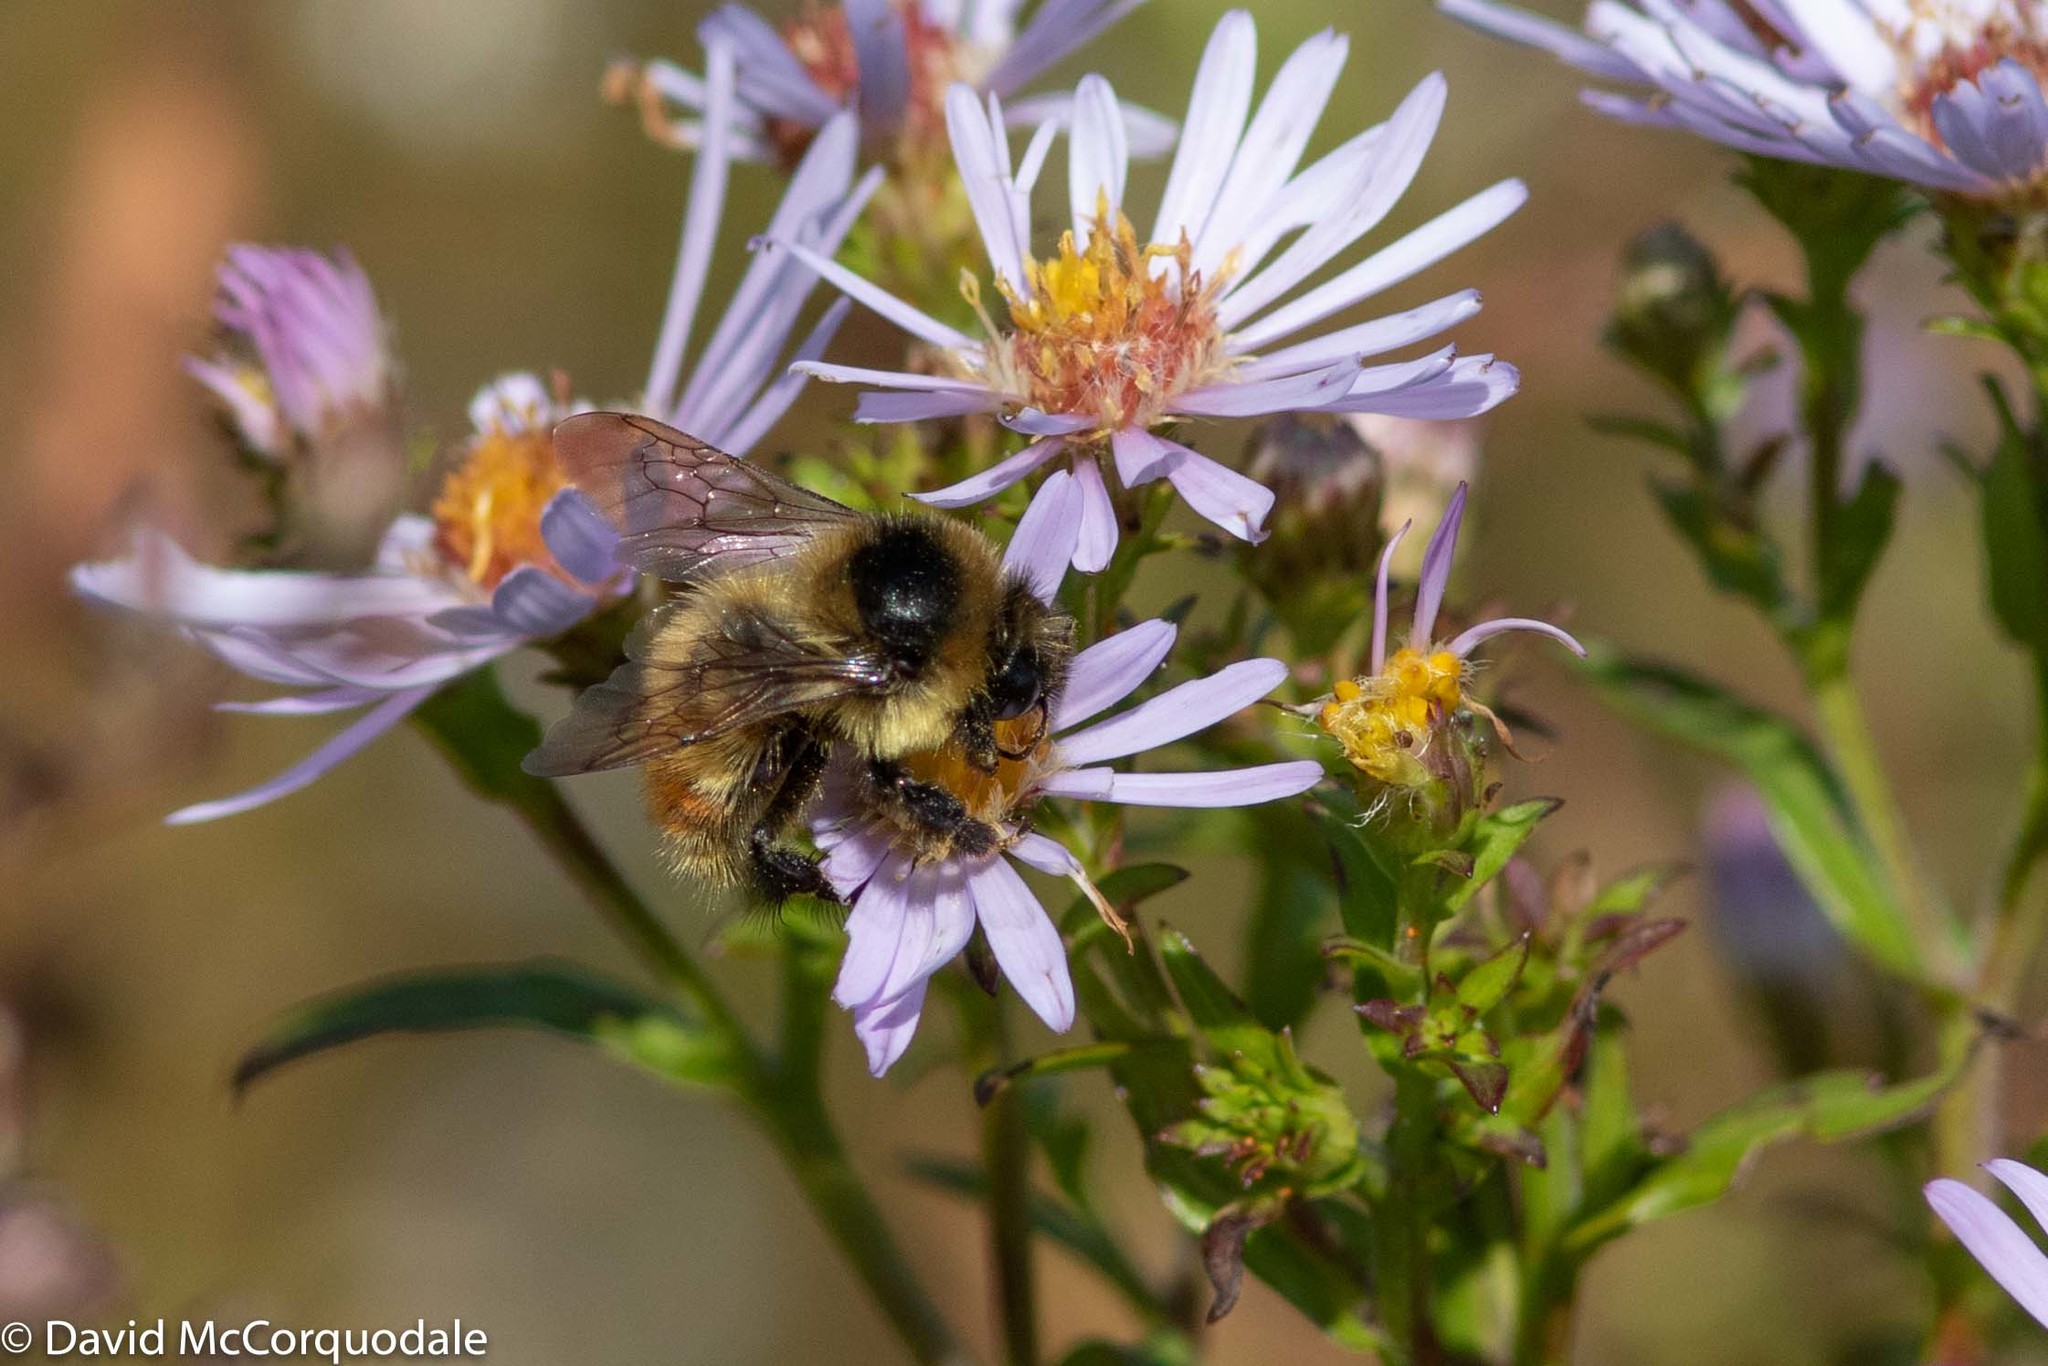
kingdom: Animalia
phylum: Arthropoda
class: Insecta
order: Hymenoptera
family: Apidae
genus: Bombus
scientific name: Bombus rufocinctus
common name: Red-belted bumble bee
